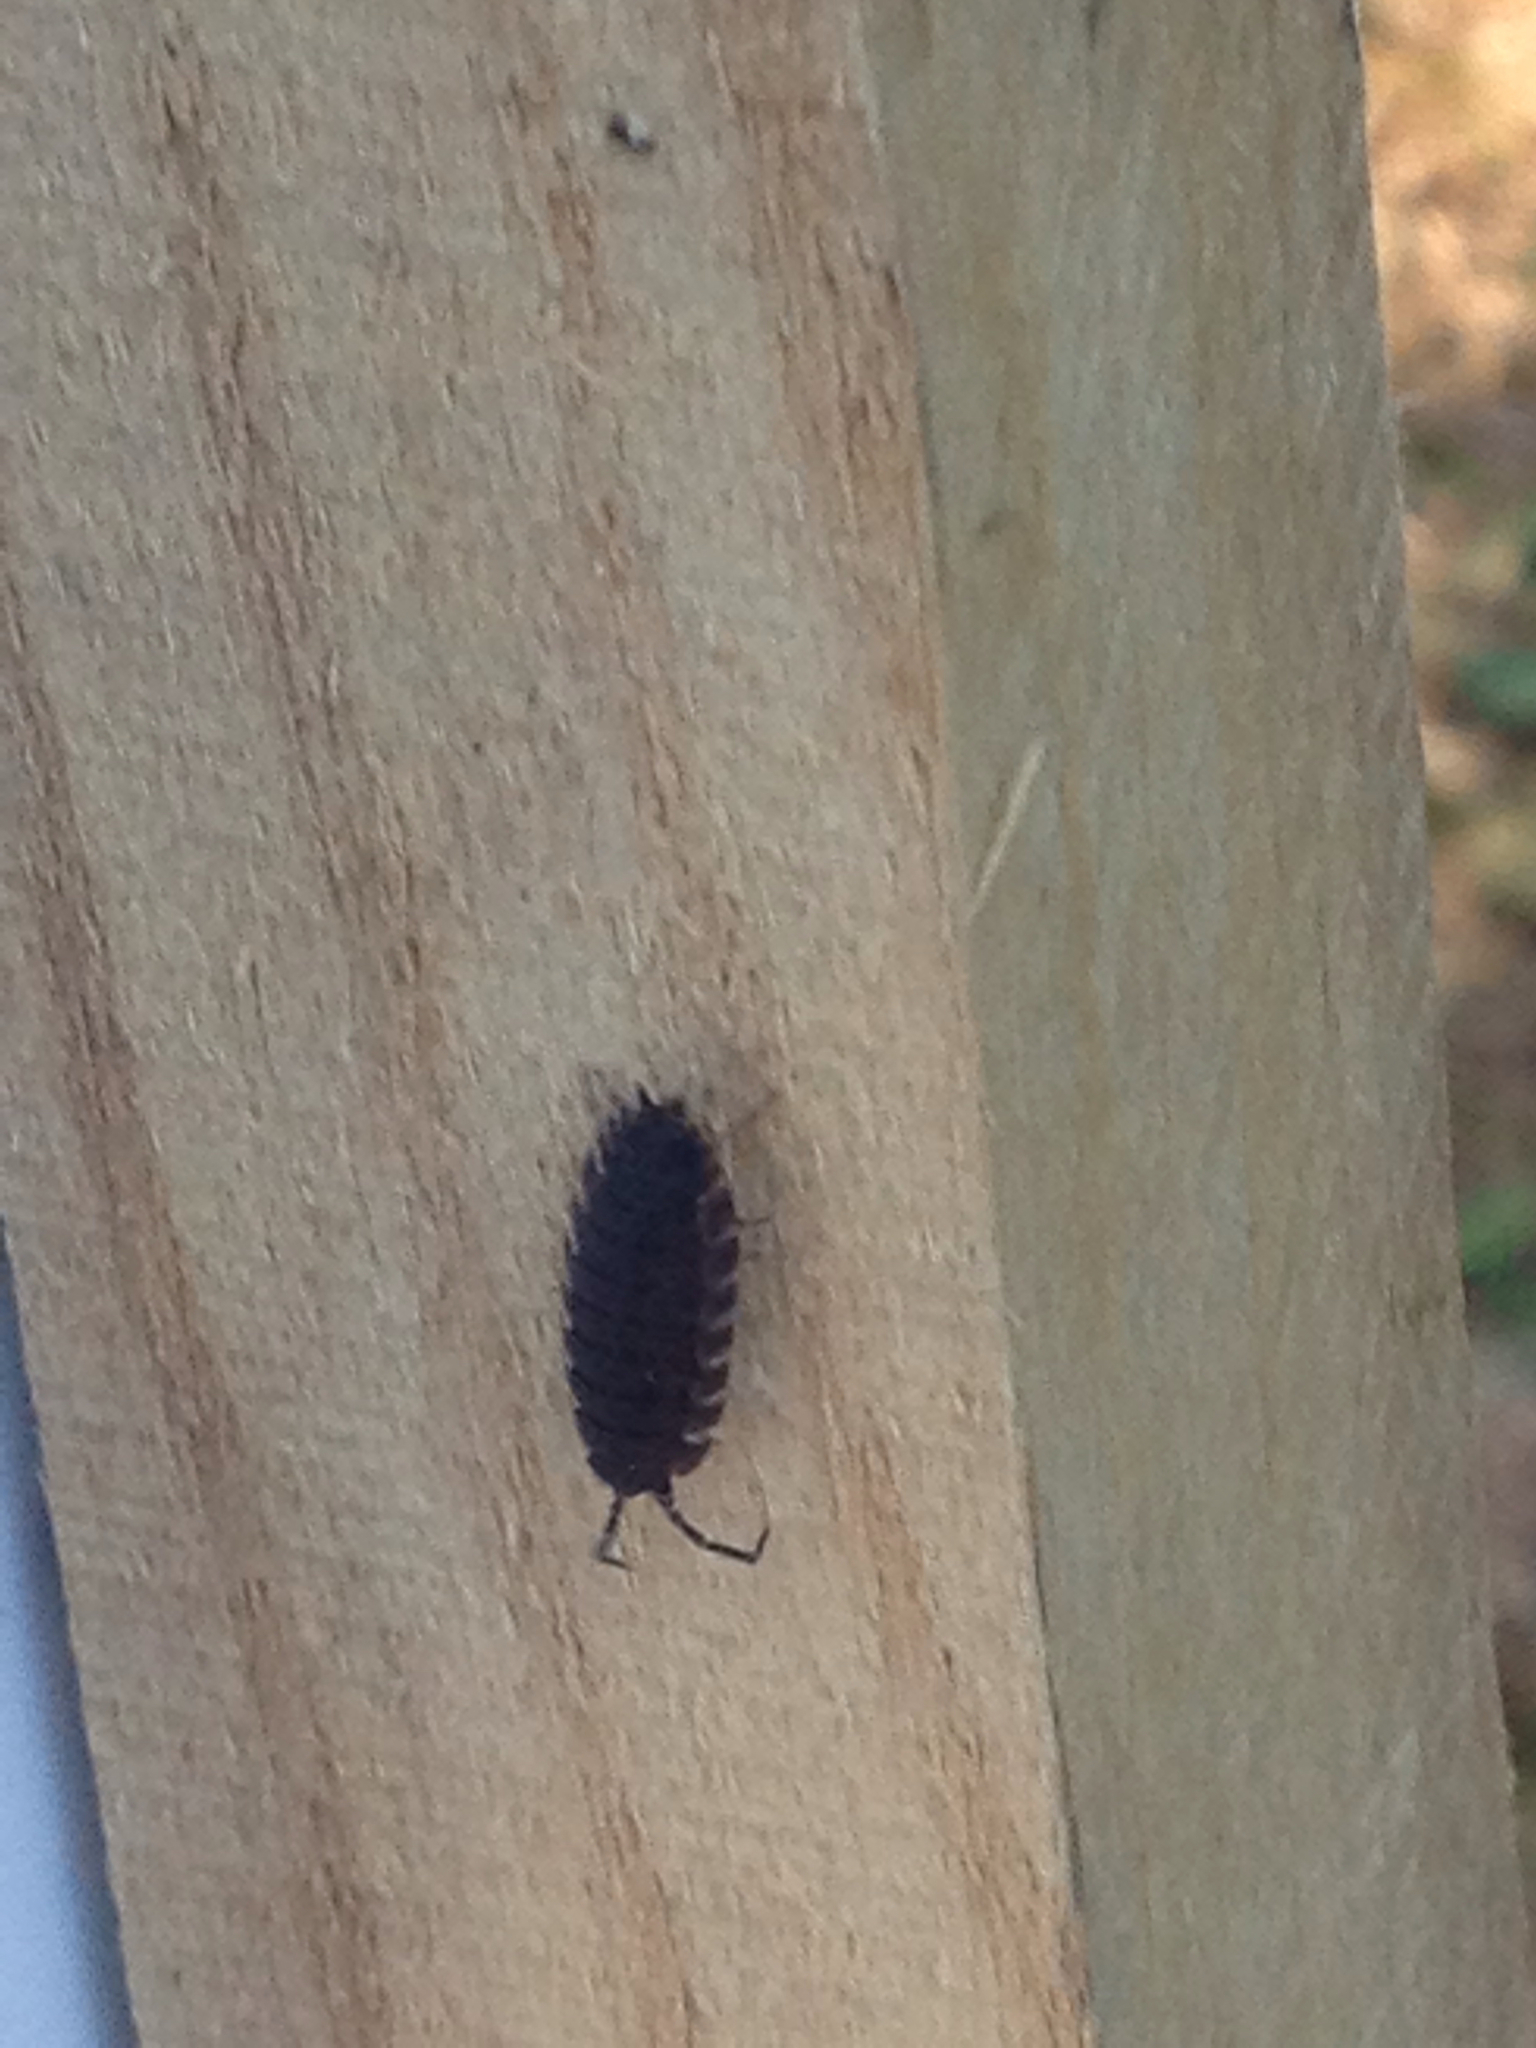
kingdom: Animalia
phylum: Arthropoda
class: Malacostraca
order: Isopoda
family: Porcellionidae
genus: Porcellio
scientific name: Porcellio scaber
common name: Common rough woodlouse
